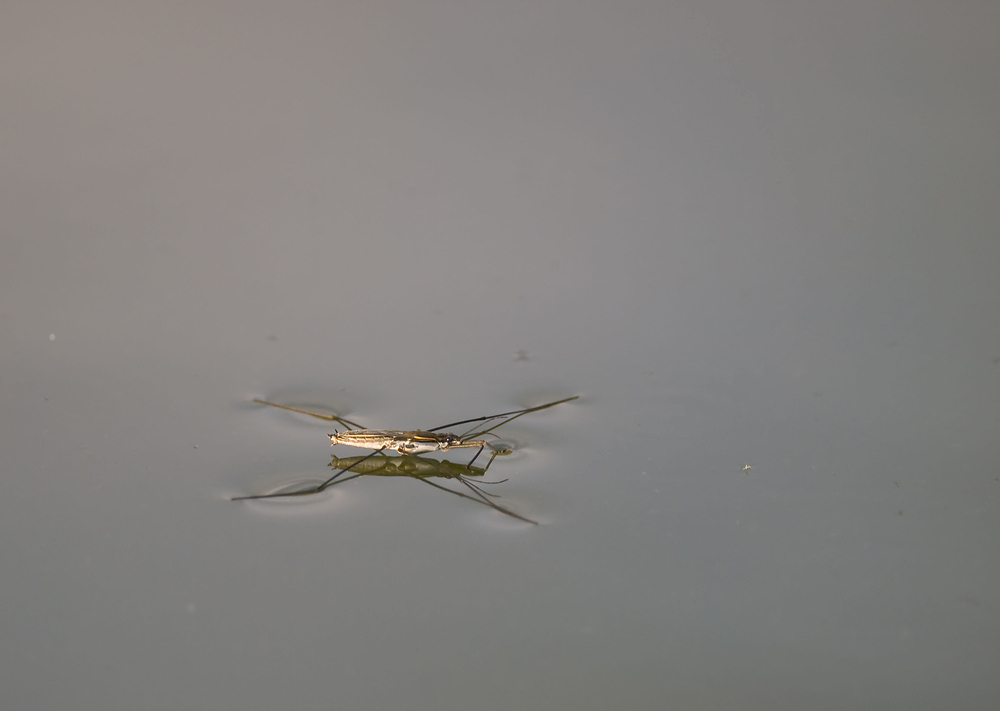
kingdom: Animalia
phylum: Arthropoda
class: Insecta
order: Hemiptera
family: Gerridae
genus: Aquarius
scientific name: Aquarius paludum
